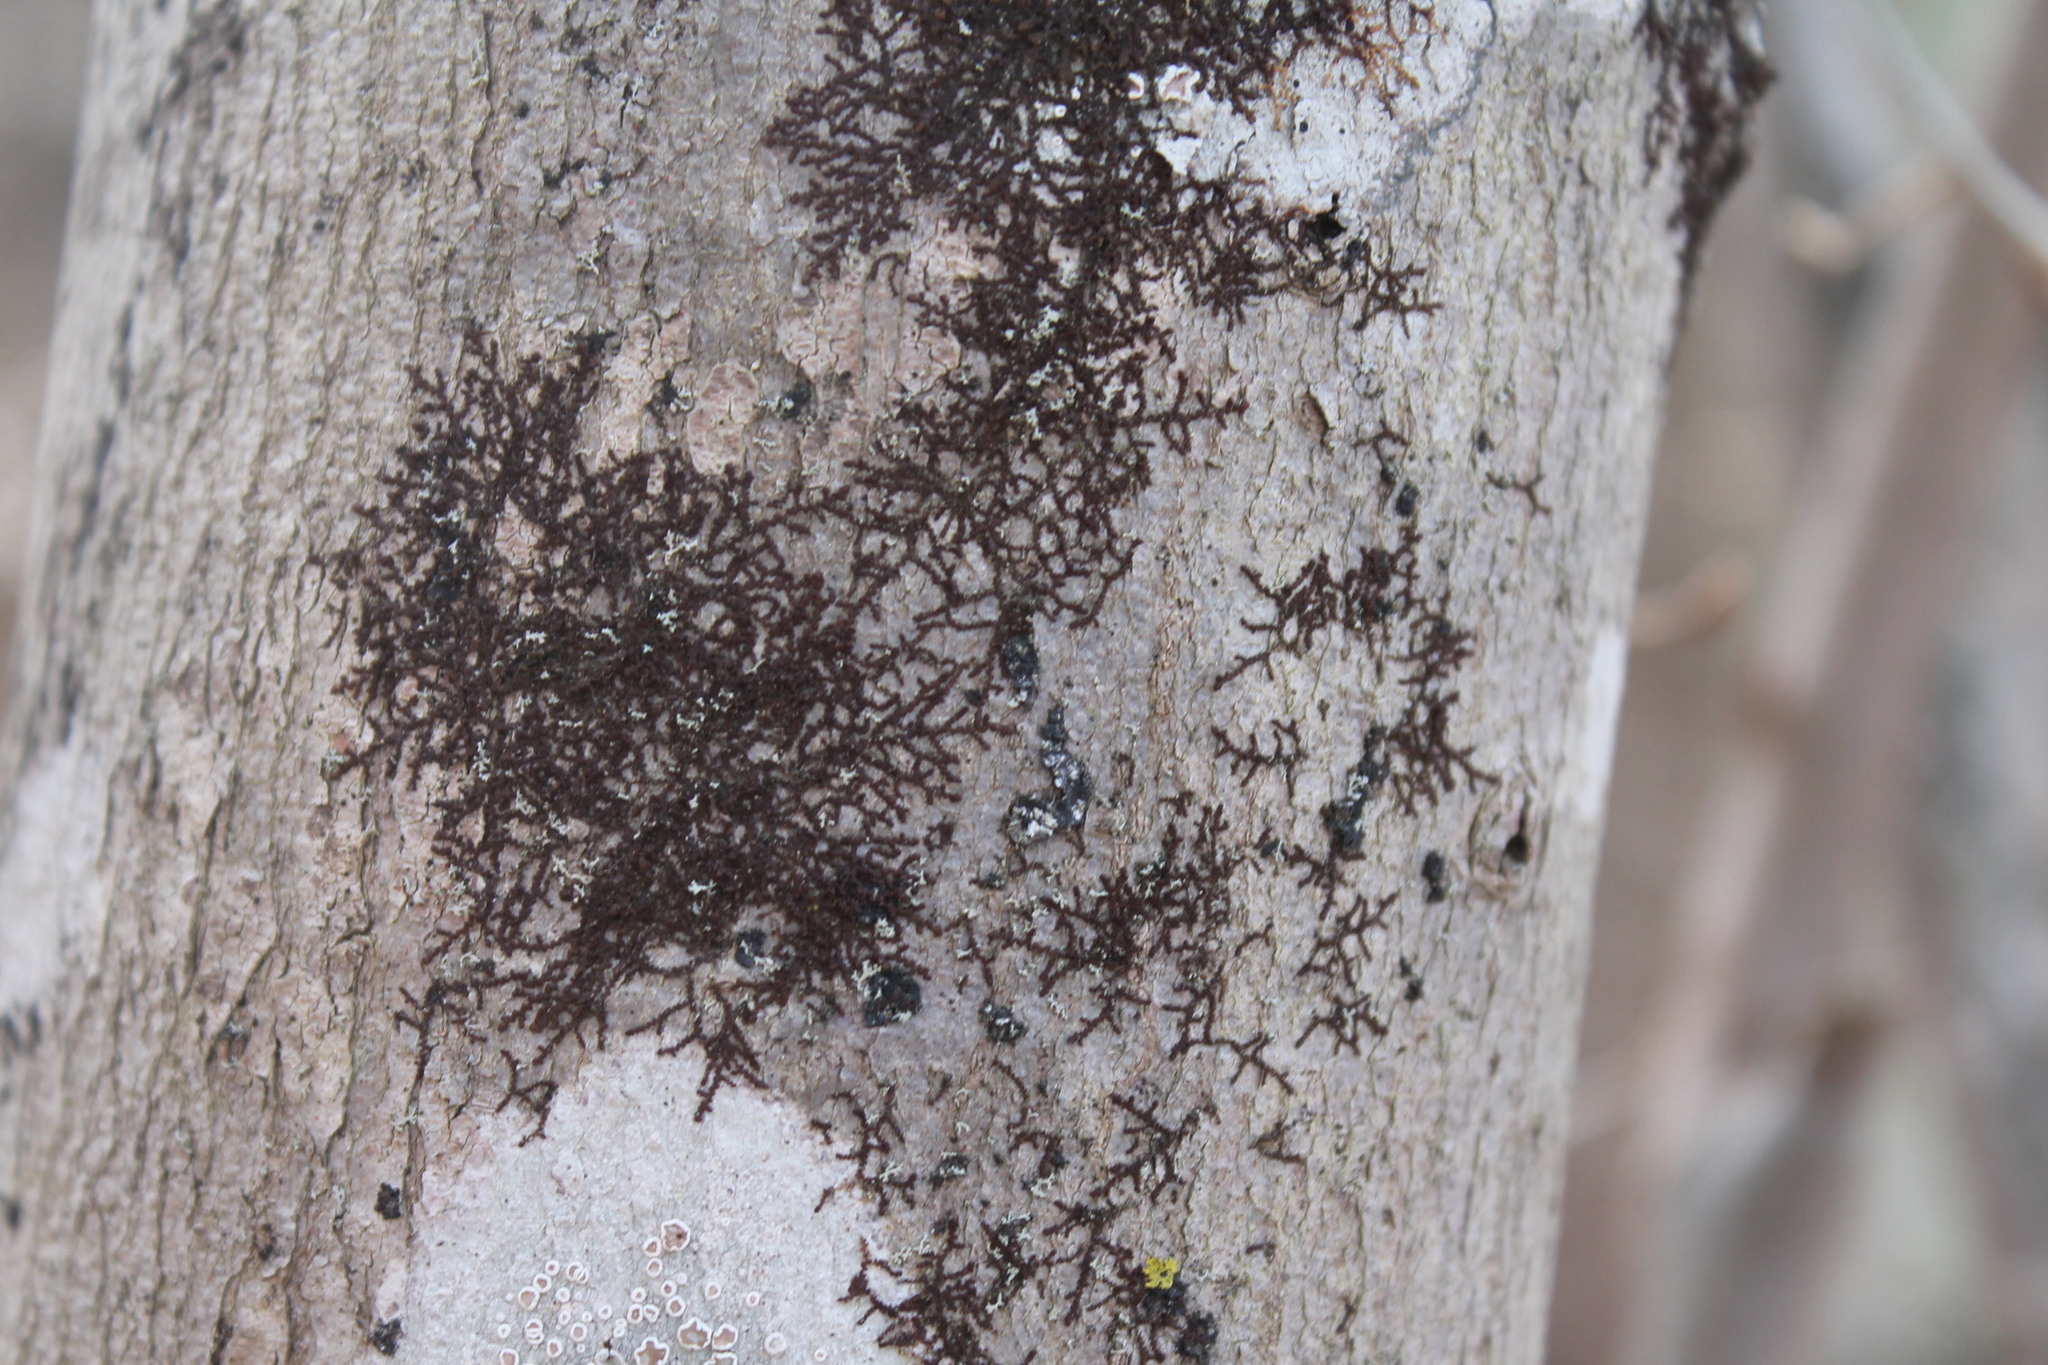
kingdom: Plantae
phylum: Marchantiophyta
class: Jungermanniopsida
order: Porellales
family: Frullaniaceae
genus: Frullania
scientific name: Frullania eboracensis
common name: New york scalewort
